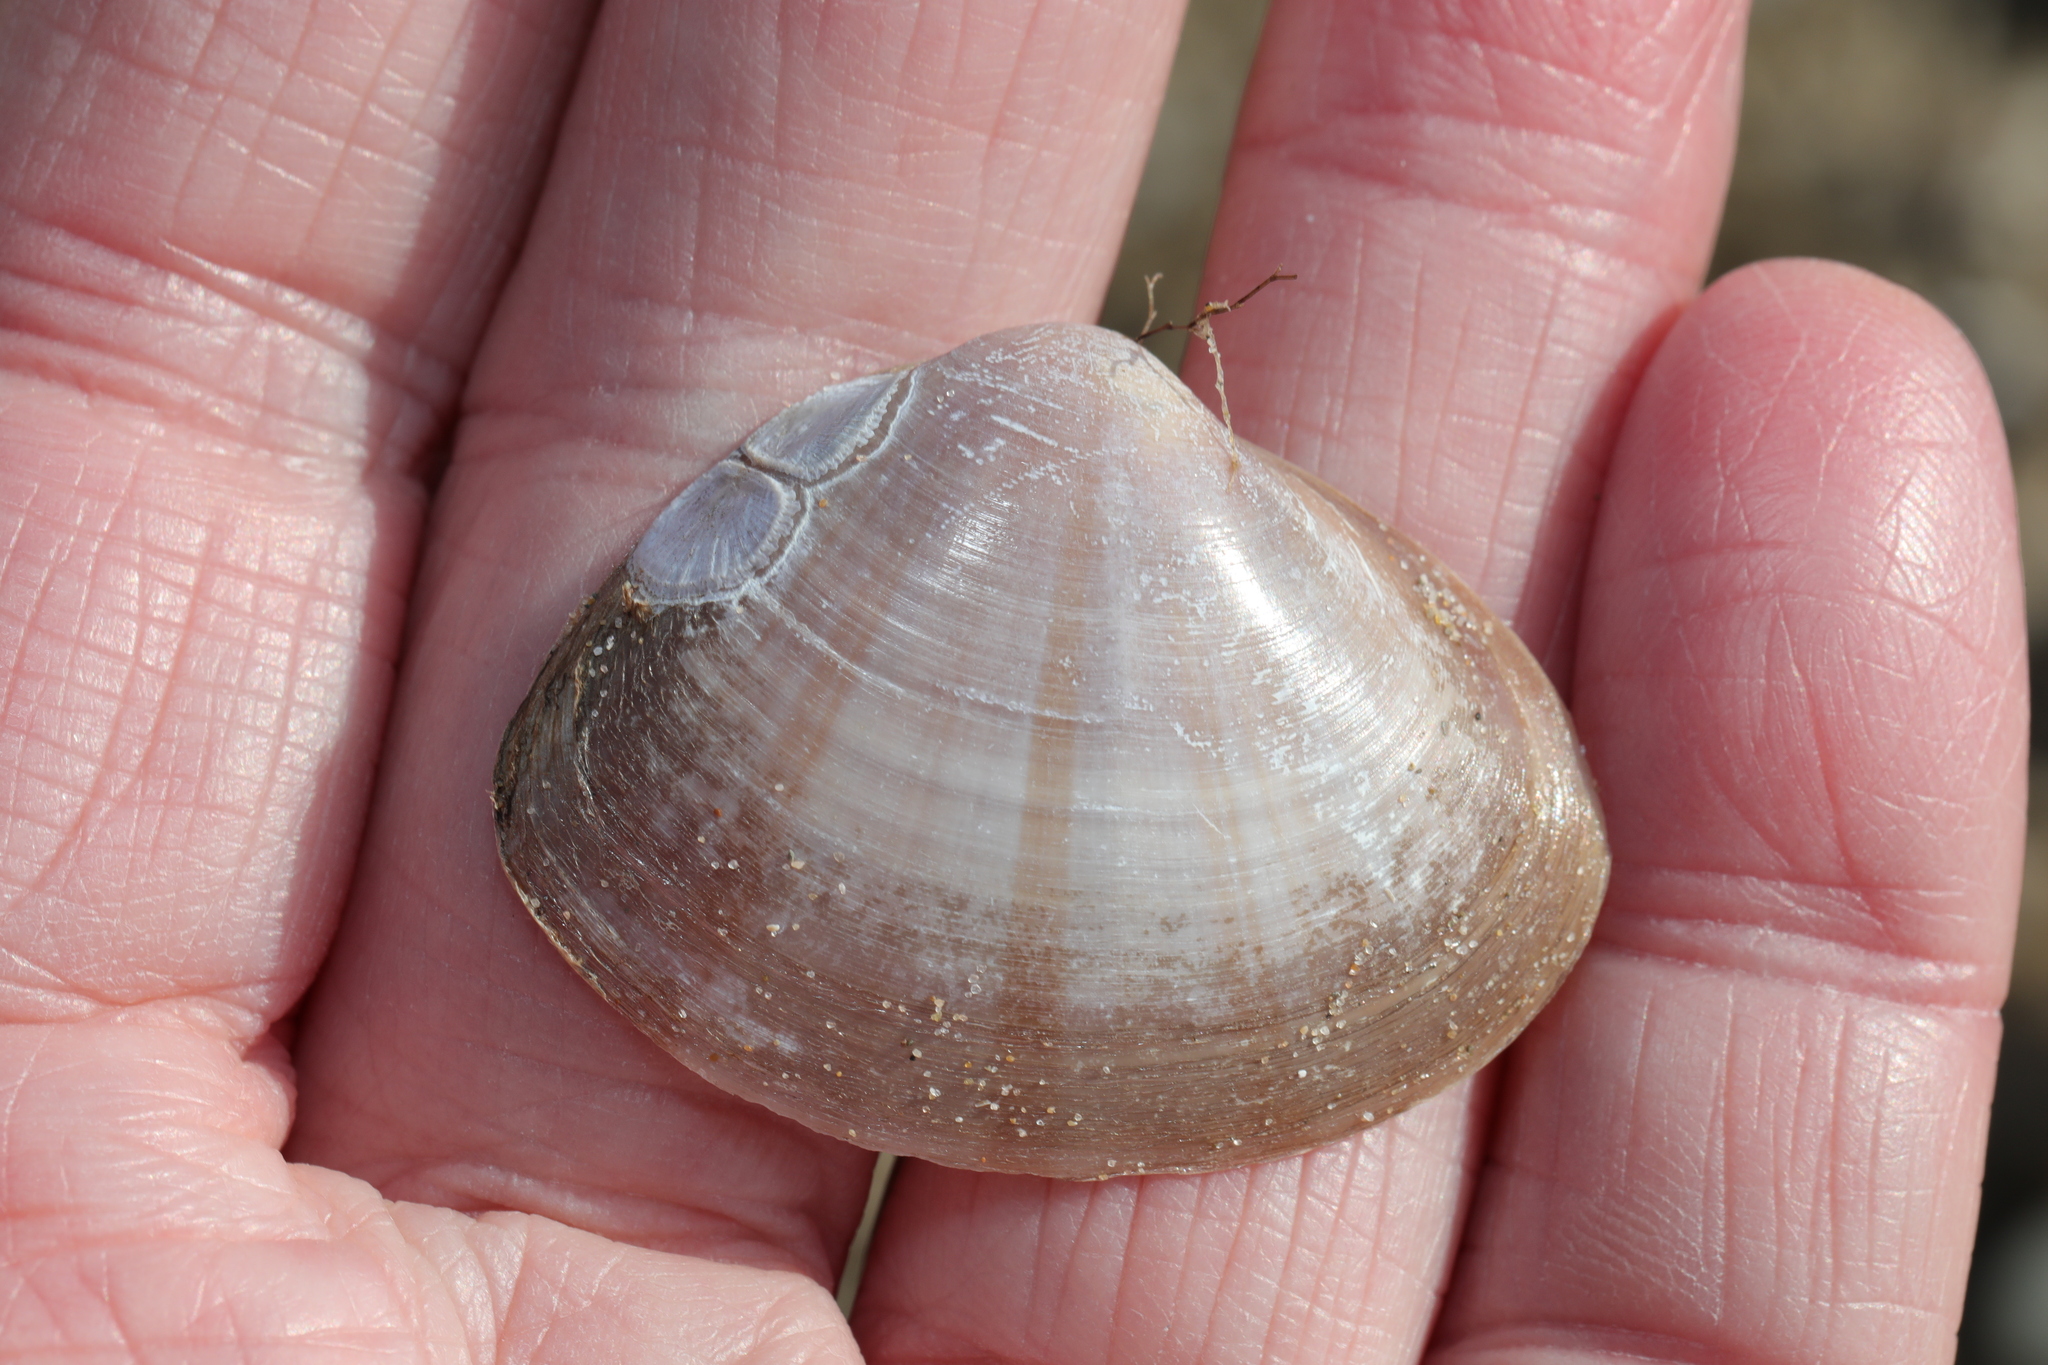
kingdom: Animalia
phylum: Mollusca
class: Bivalvia
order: Venerida
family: Mactridae
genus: Mactra
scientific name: Mactra stultorum
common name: Rayed trough shell
